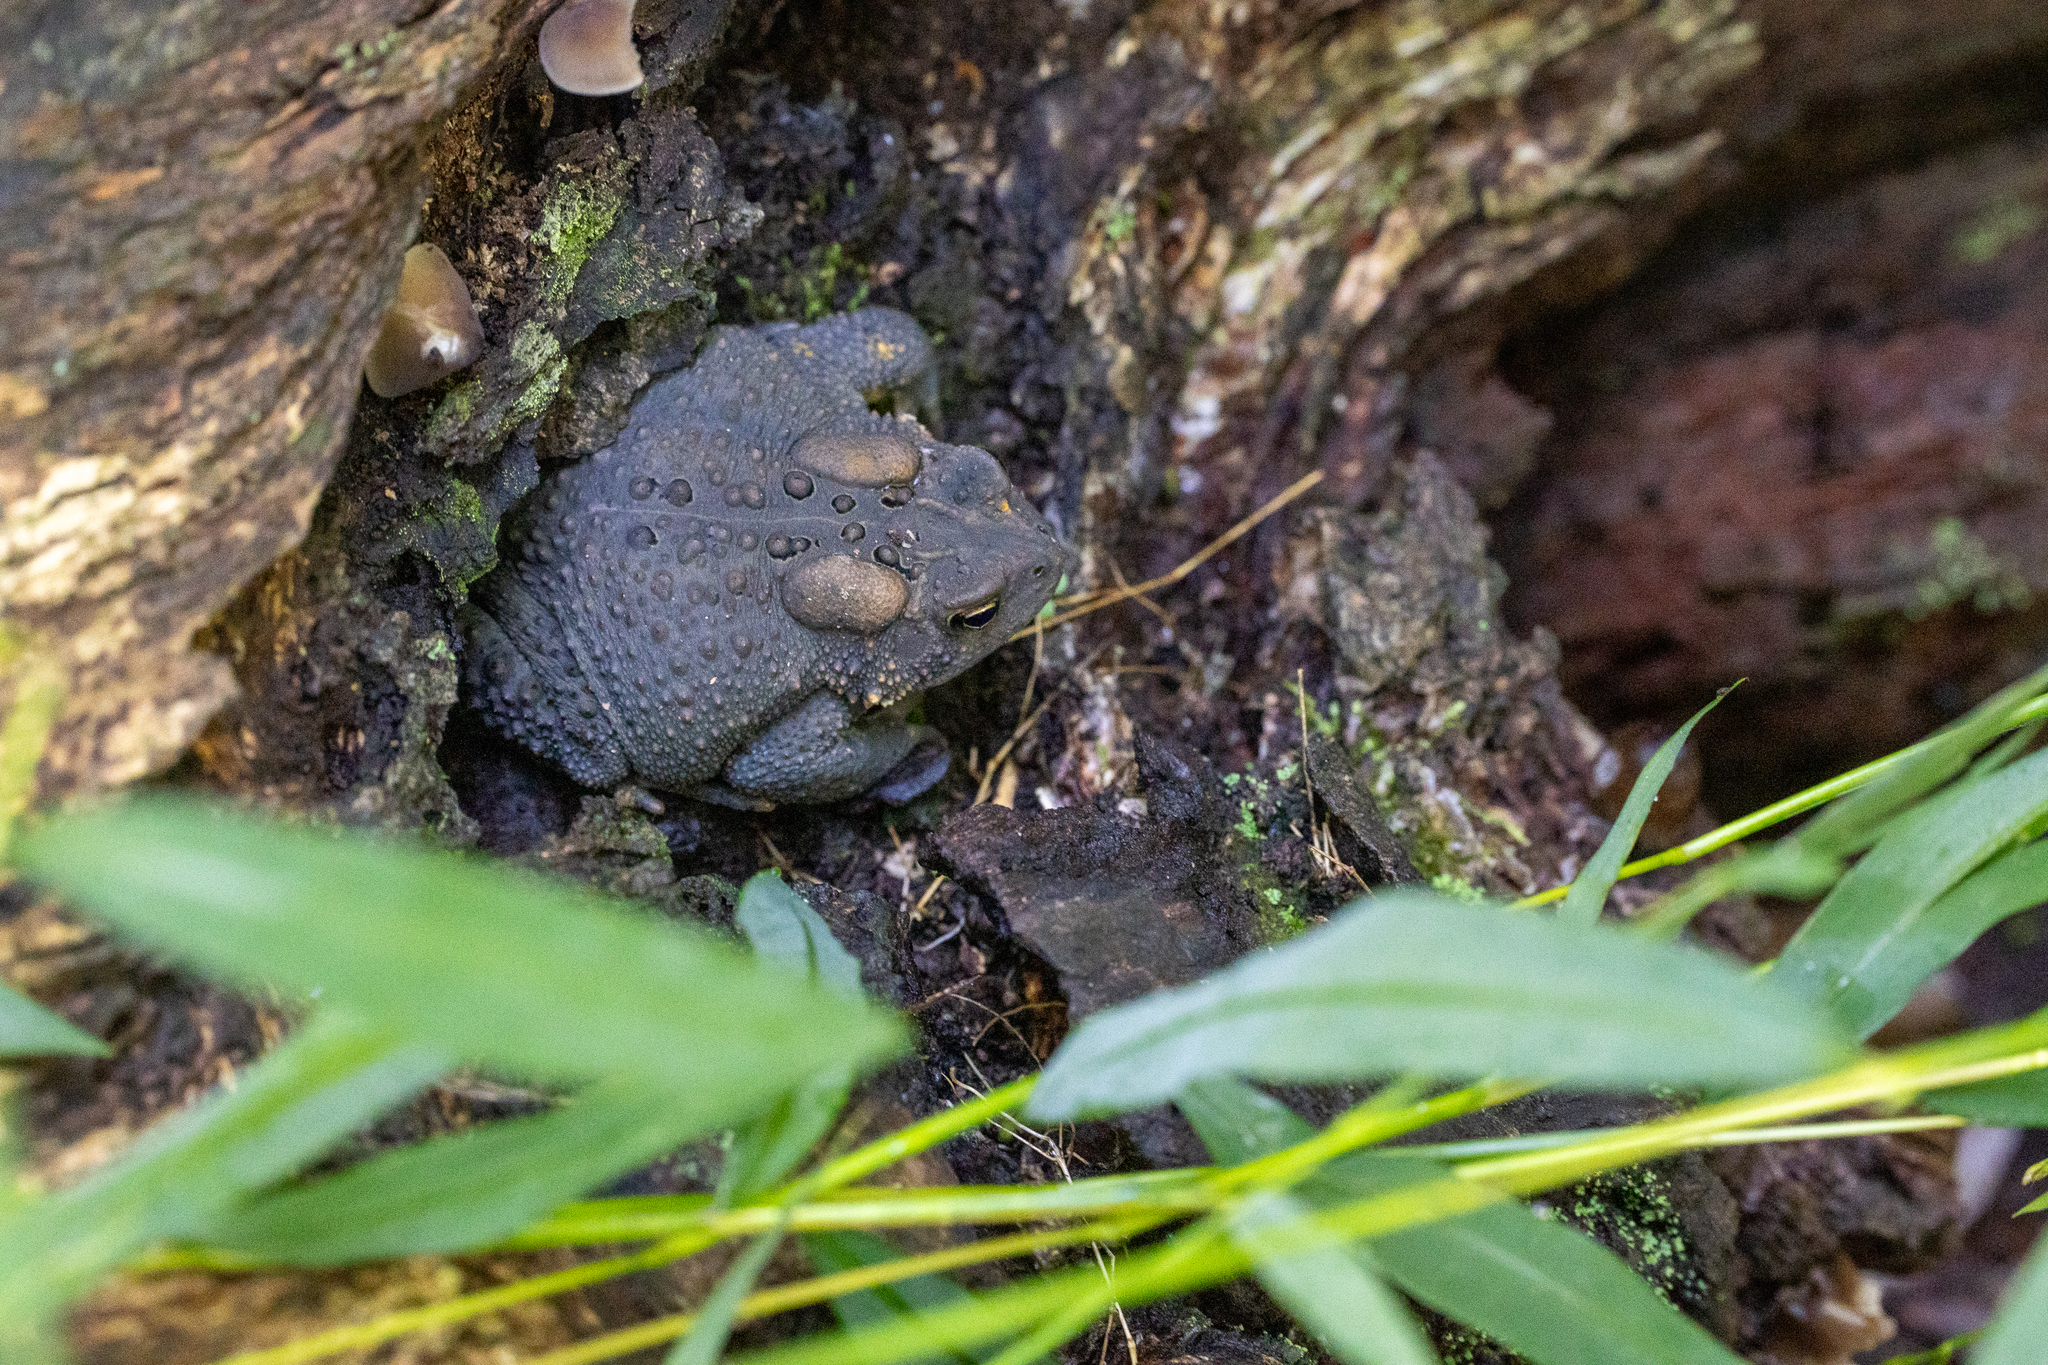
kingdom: Animalia
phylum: Chordata
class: Amphibia
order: Anura
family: Bufonidae
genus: Anaxyrus
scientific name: Anaxyrus americanus
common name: American toad
